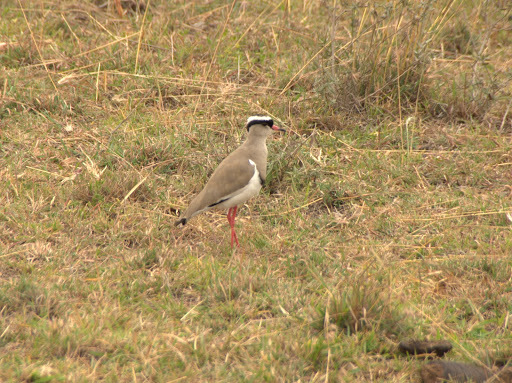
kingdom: Animalia
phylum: Chordata
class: Aves
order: Charadriiformes
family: Charadriidae
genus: Vanellus
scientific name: Vanellus coronatus
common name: Crowned lapwing
